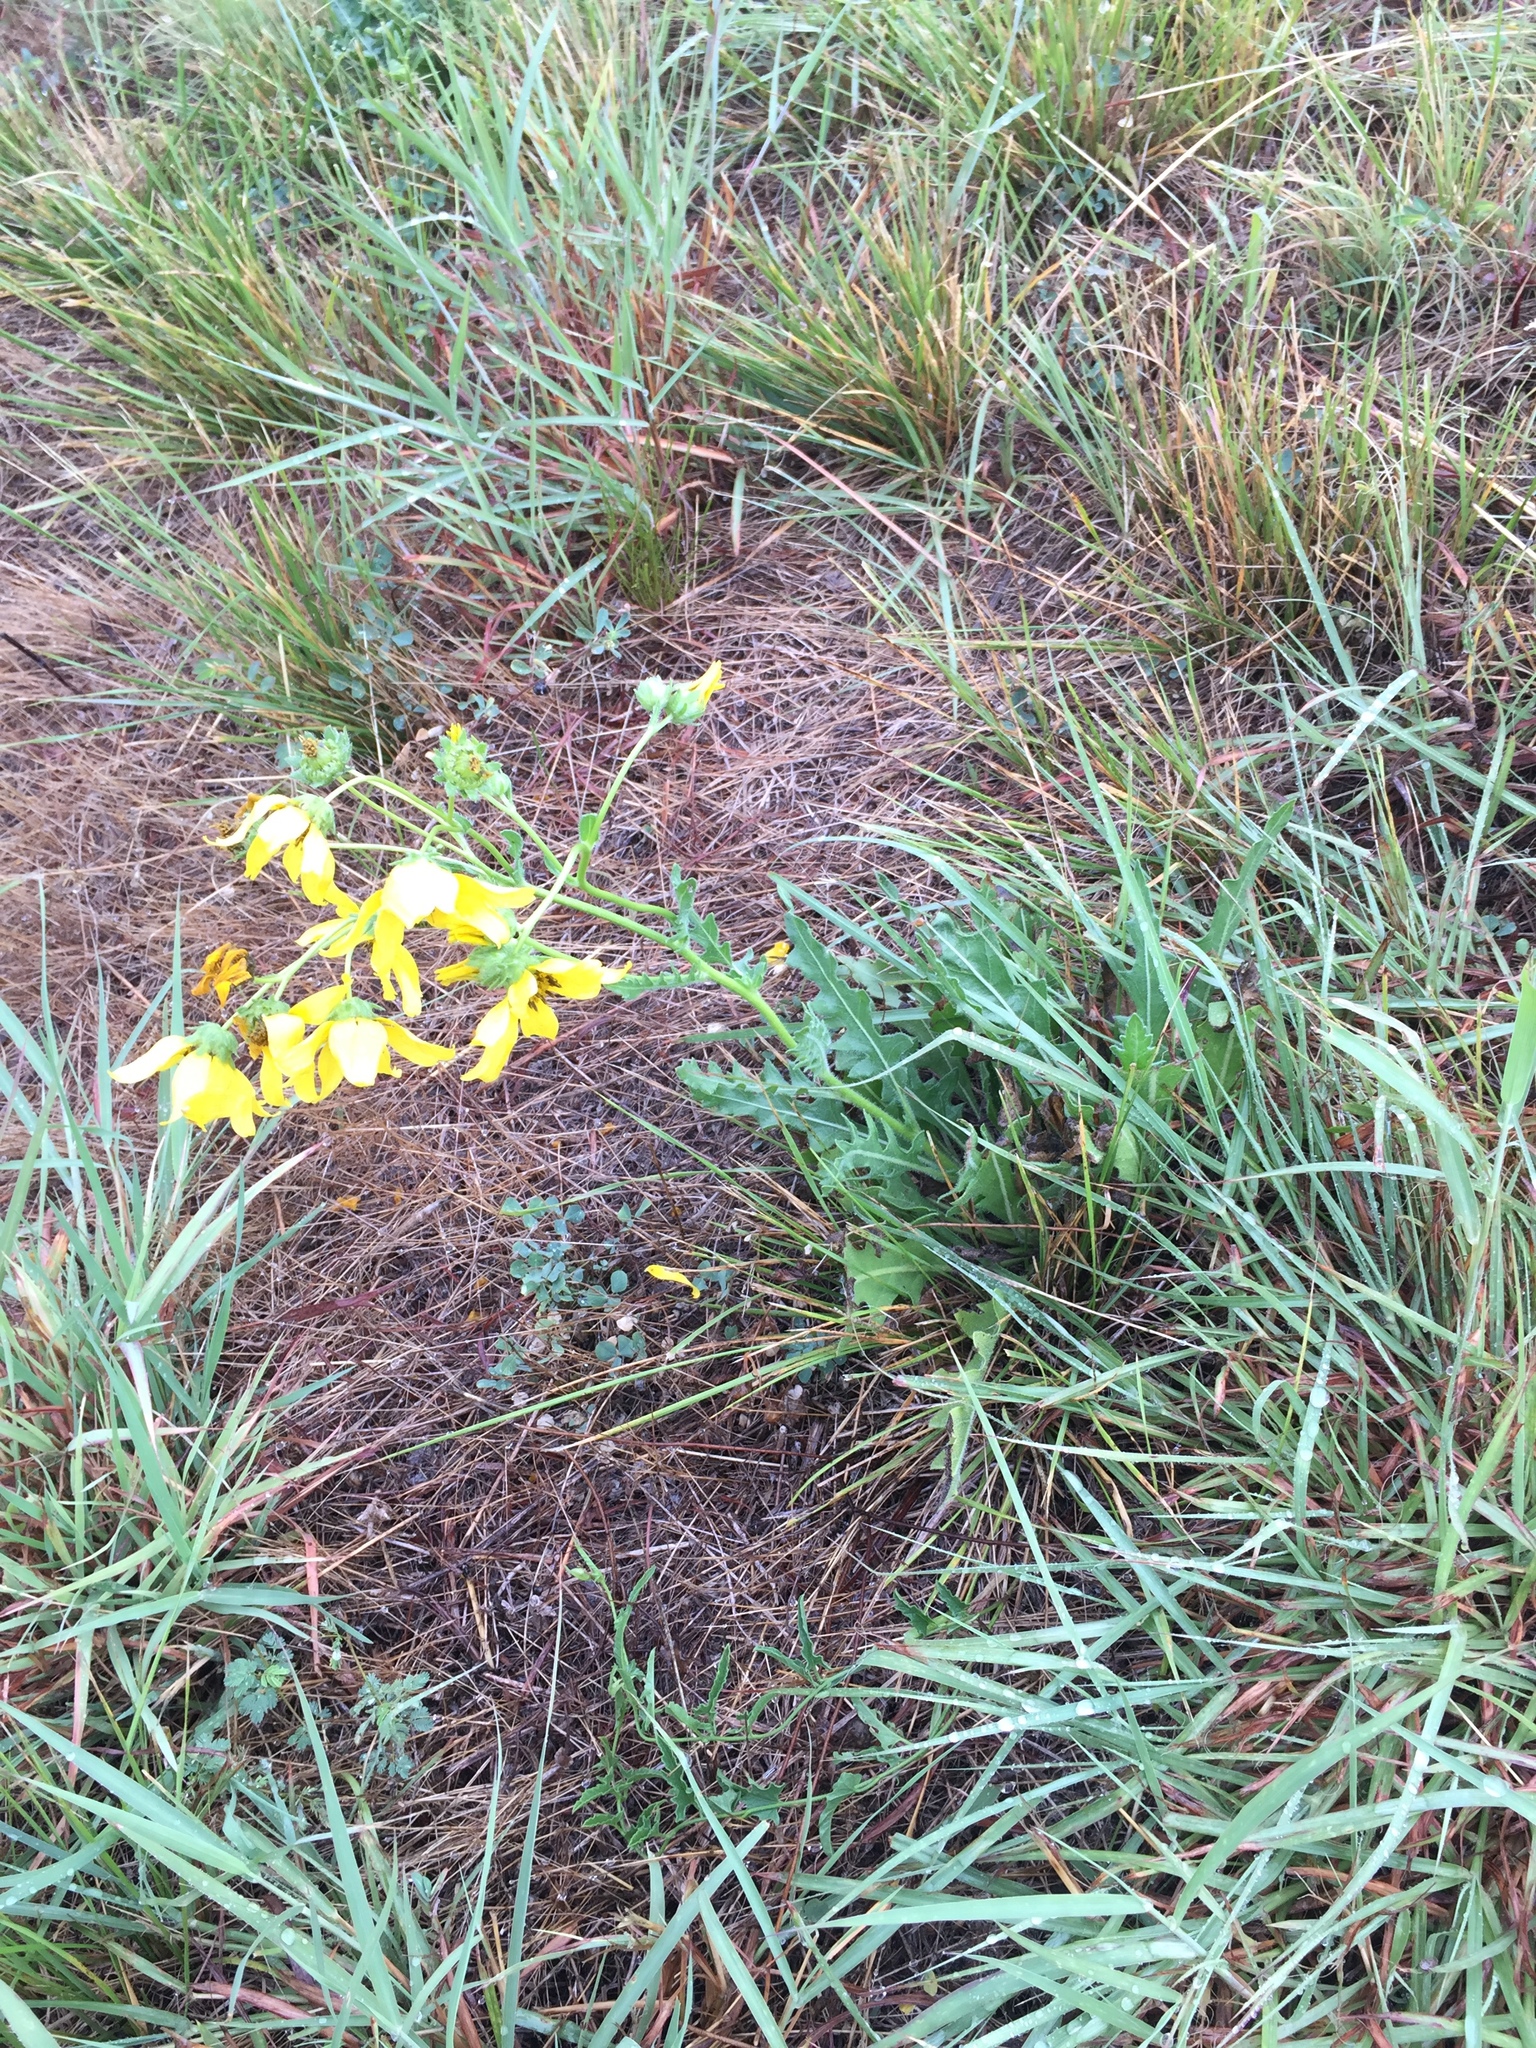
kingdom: Plantae
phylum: Tracheophyta
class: Magnoliopsida
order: Asterales
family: Asteraceae
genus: Engelmannia
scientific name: Engelmannia peristenia
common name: Engelmann's daisy
